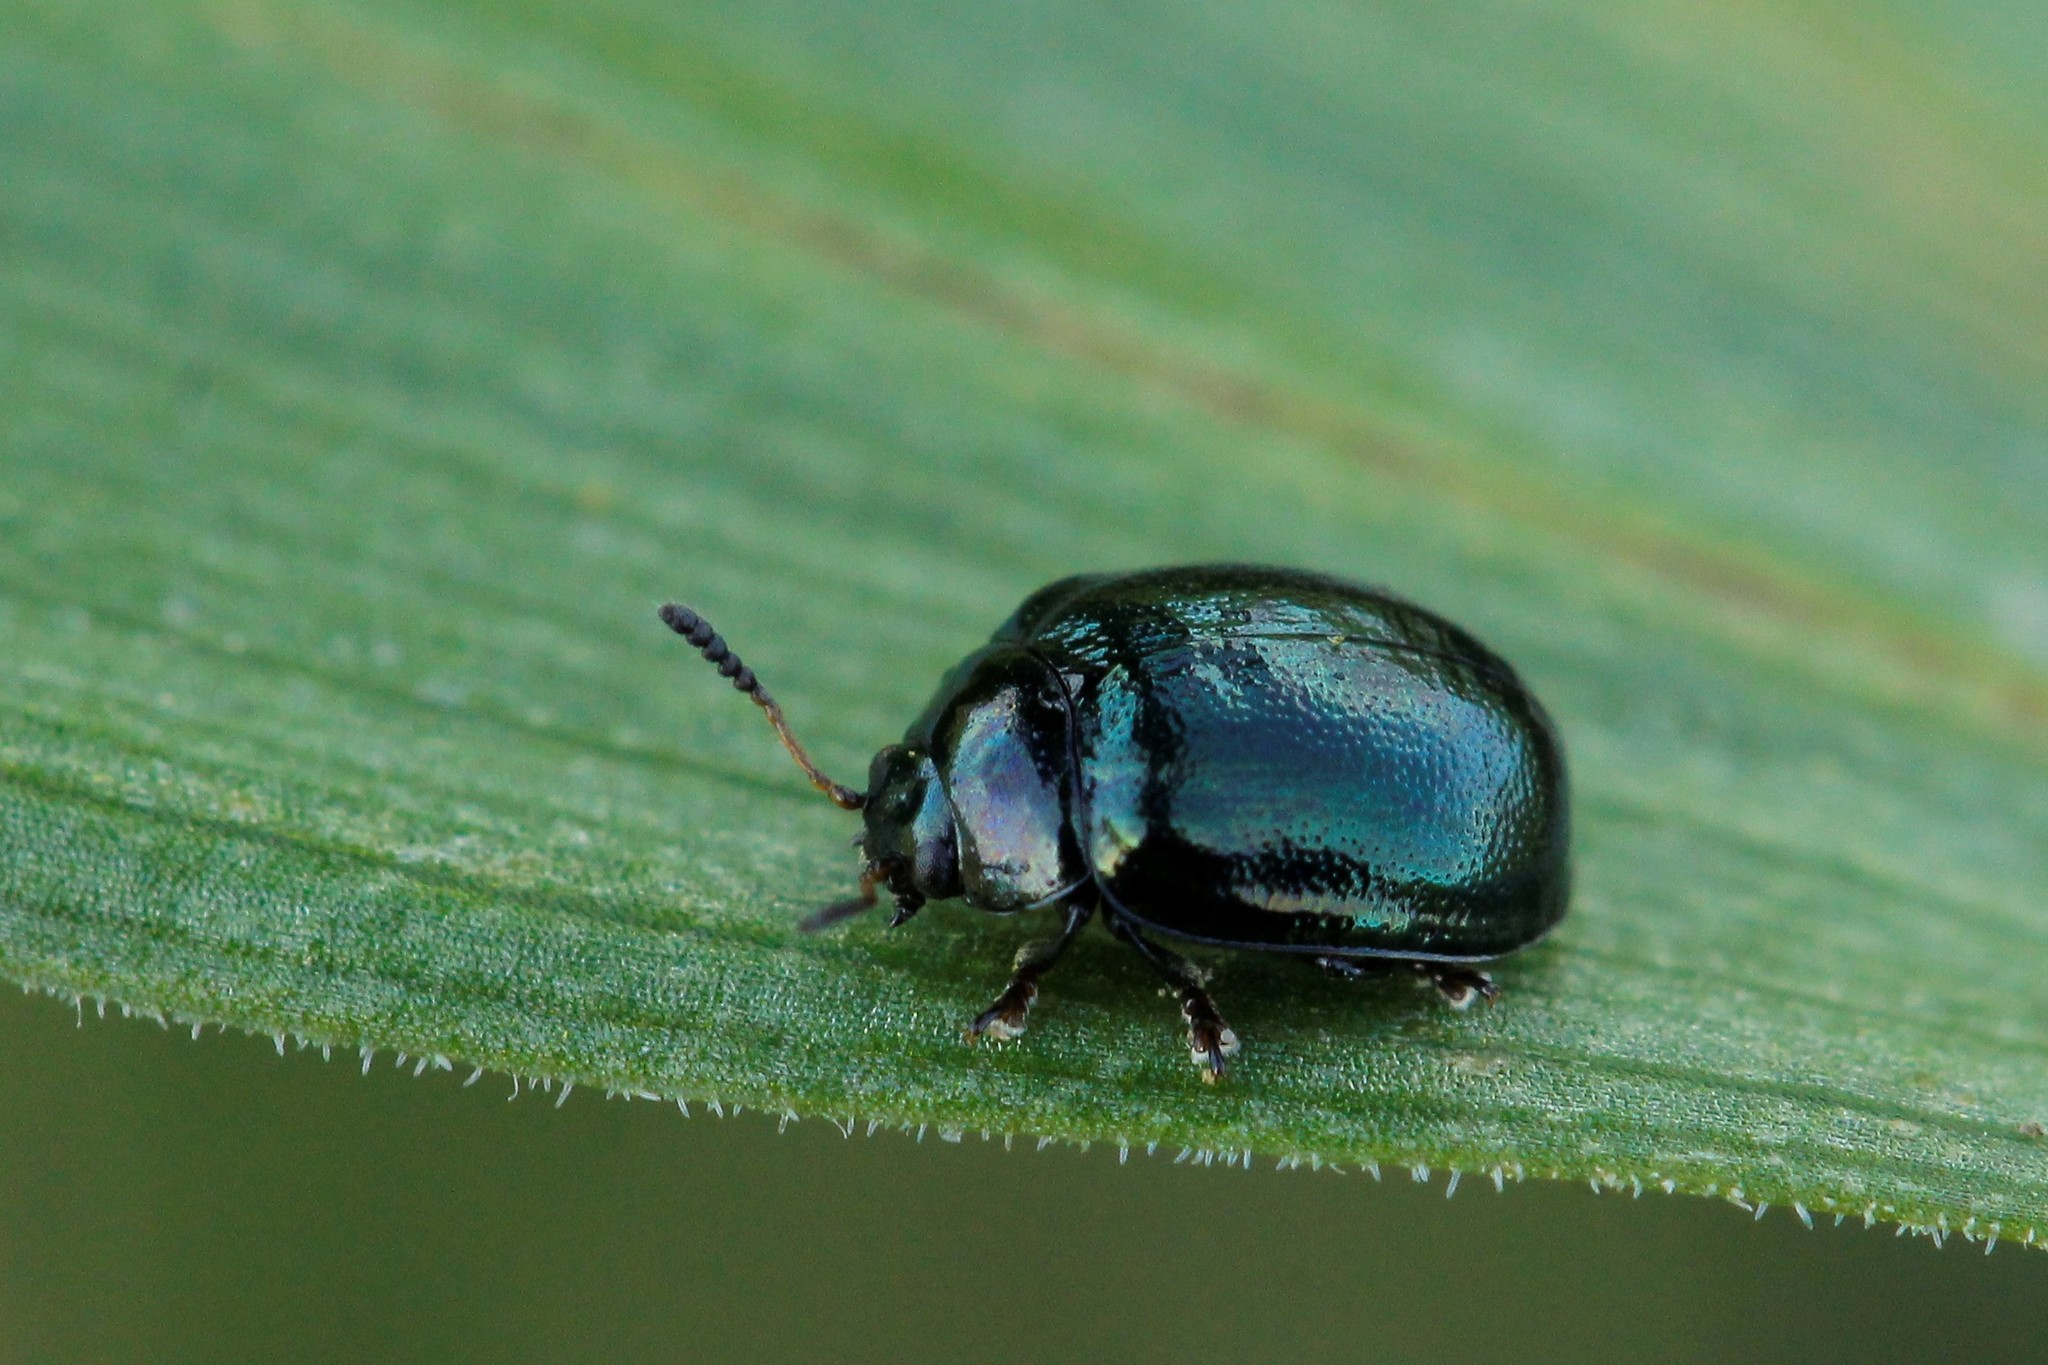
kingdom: Animalia
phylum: Arthropoda
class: Insecta
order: Coleoptera
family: Chrysomelidae
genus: Plagiodera
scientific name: Plagiodera versicolora
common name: Imported willow leaf beetle
